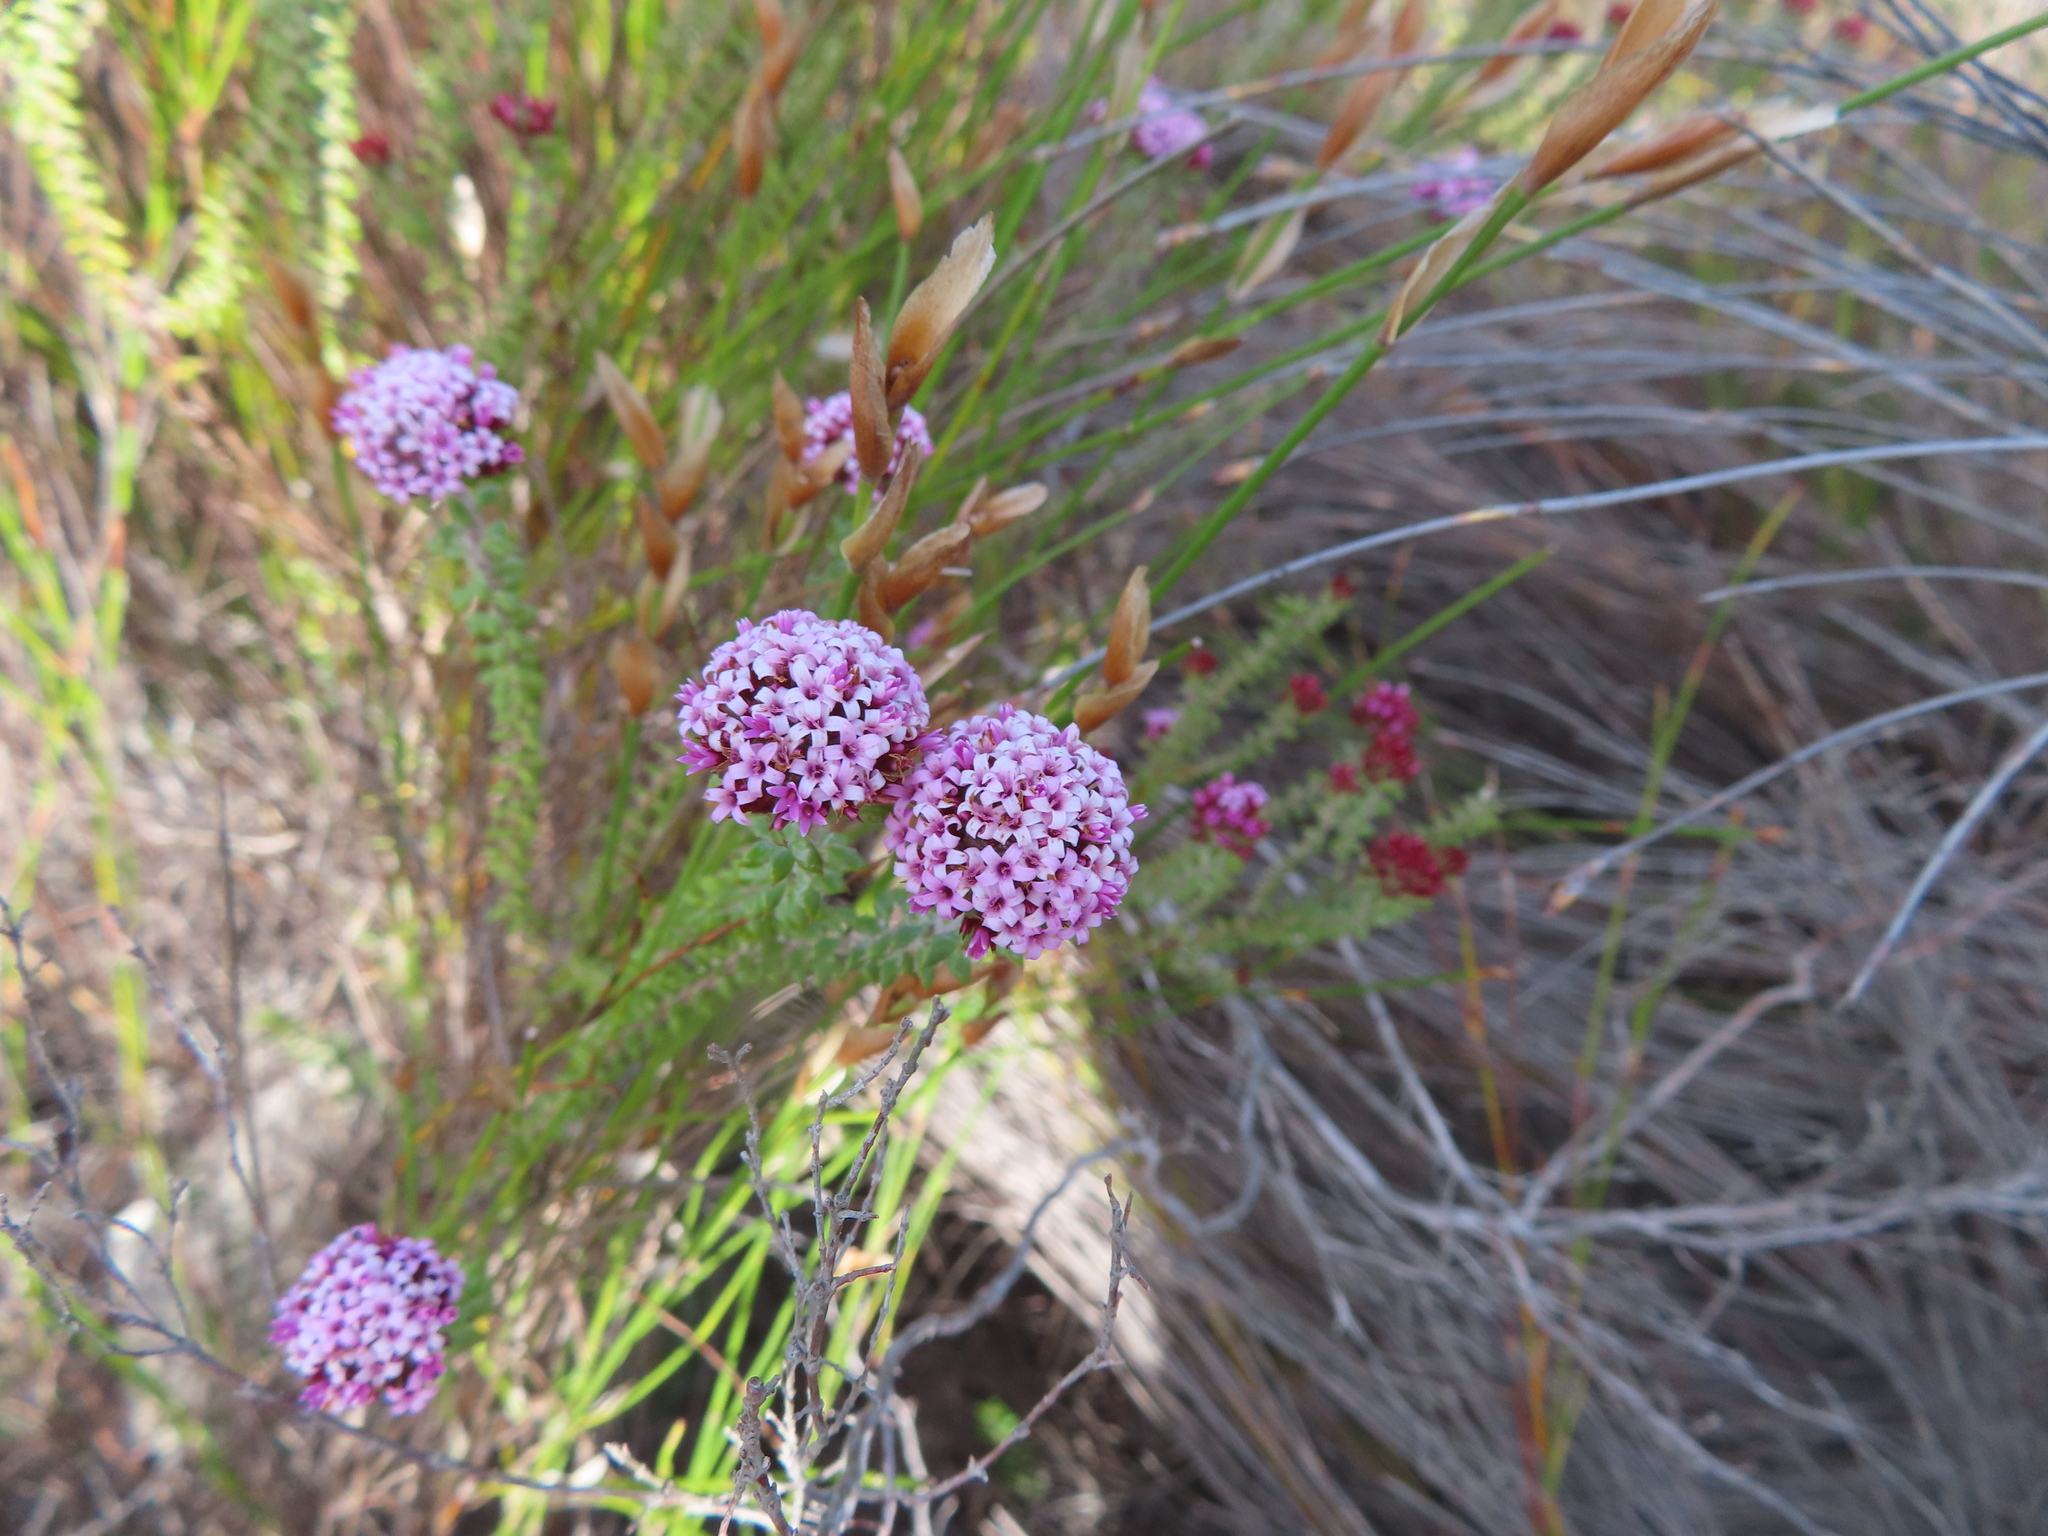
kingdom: Plantae
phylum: Tracheophyta
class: Magnoliopsida
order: Asterales
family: Asteraceae
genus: Stoebe
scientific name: Stoebe cyathuloides
